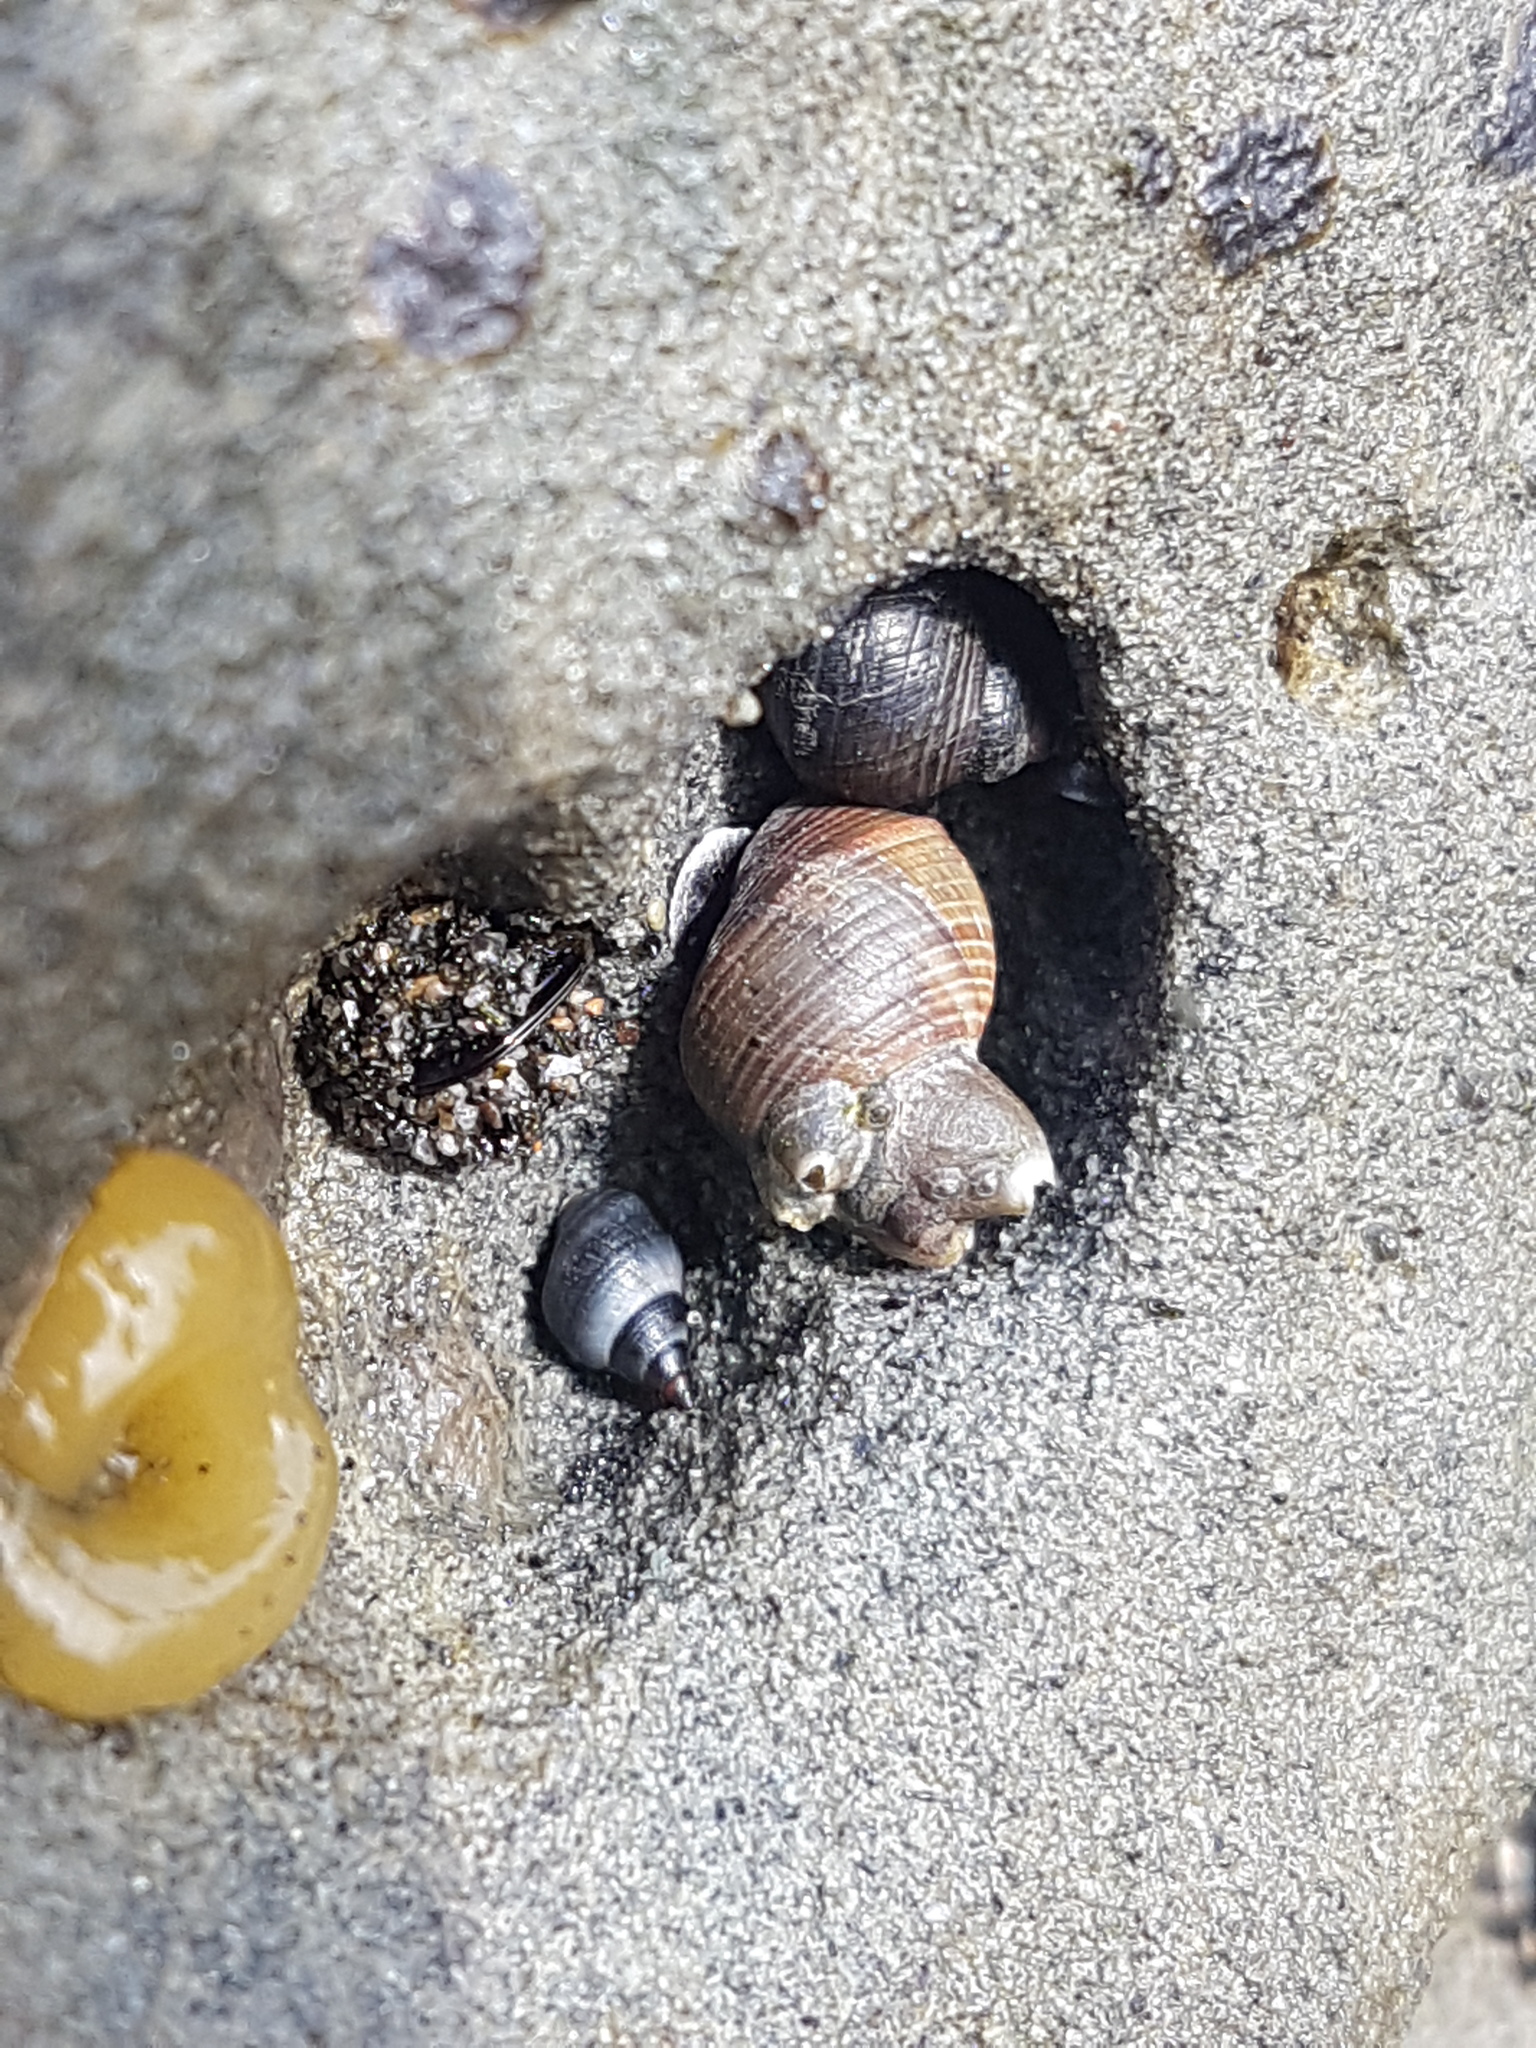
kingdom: Animalia
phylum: Mollusca
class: Gastropoda
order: Littorinimorpha
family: Littorinidae
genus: Austrolittorina
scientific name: Austrolittorina cincta
